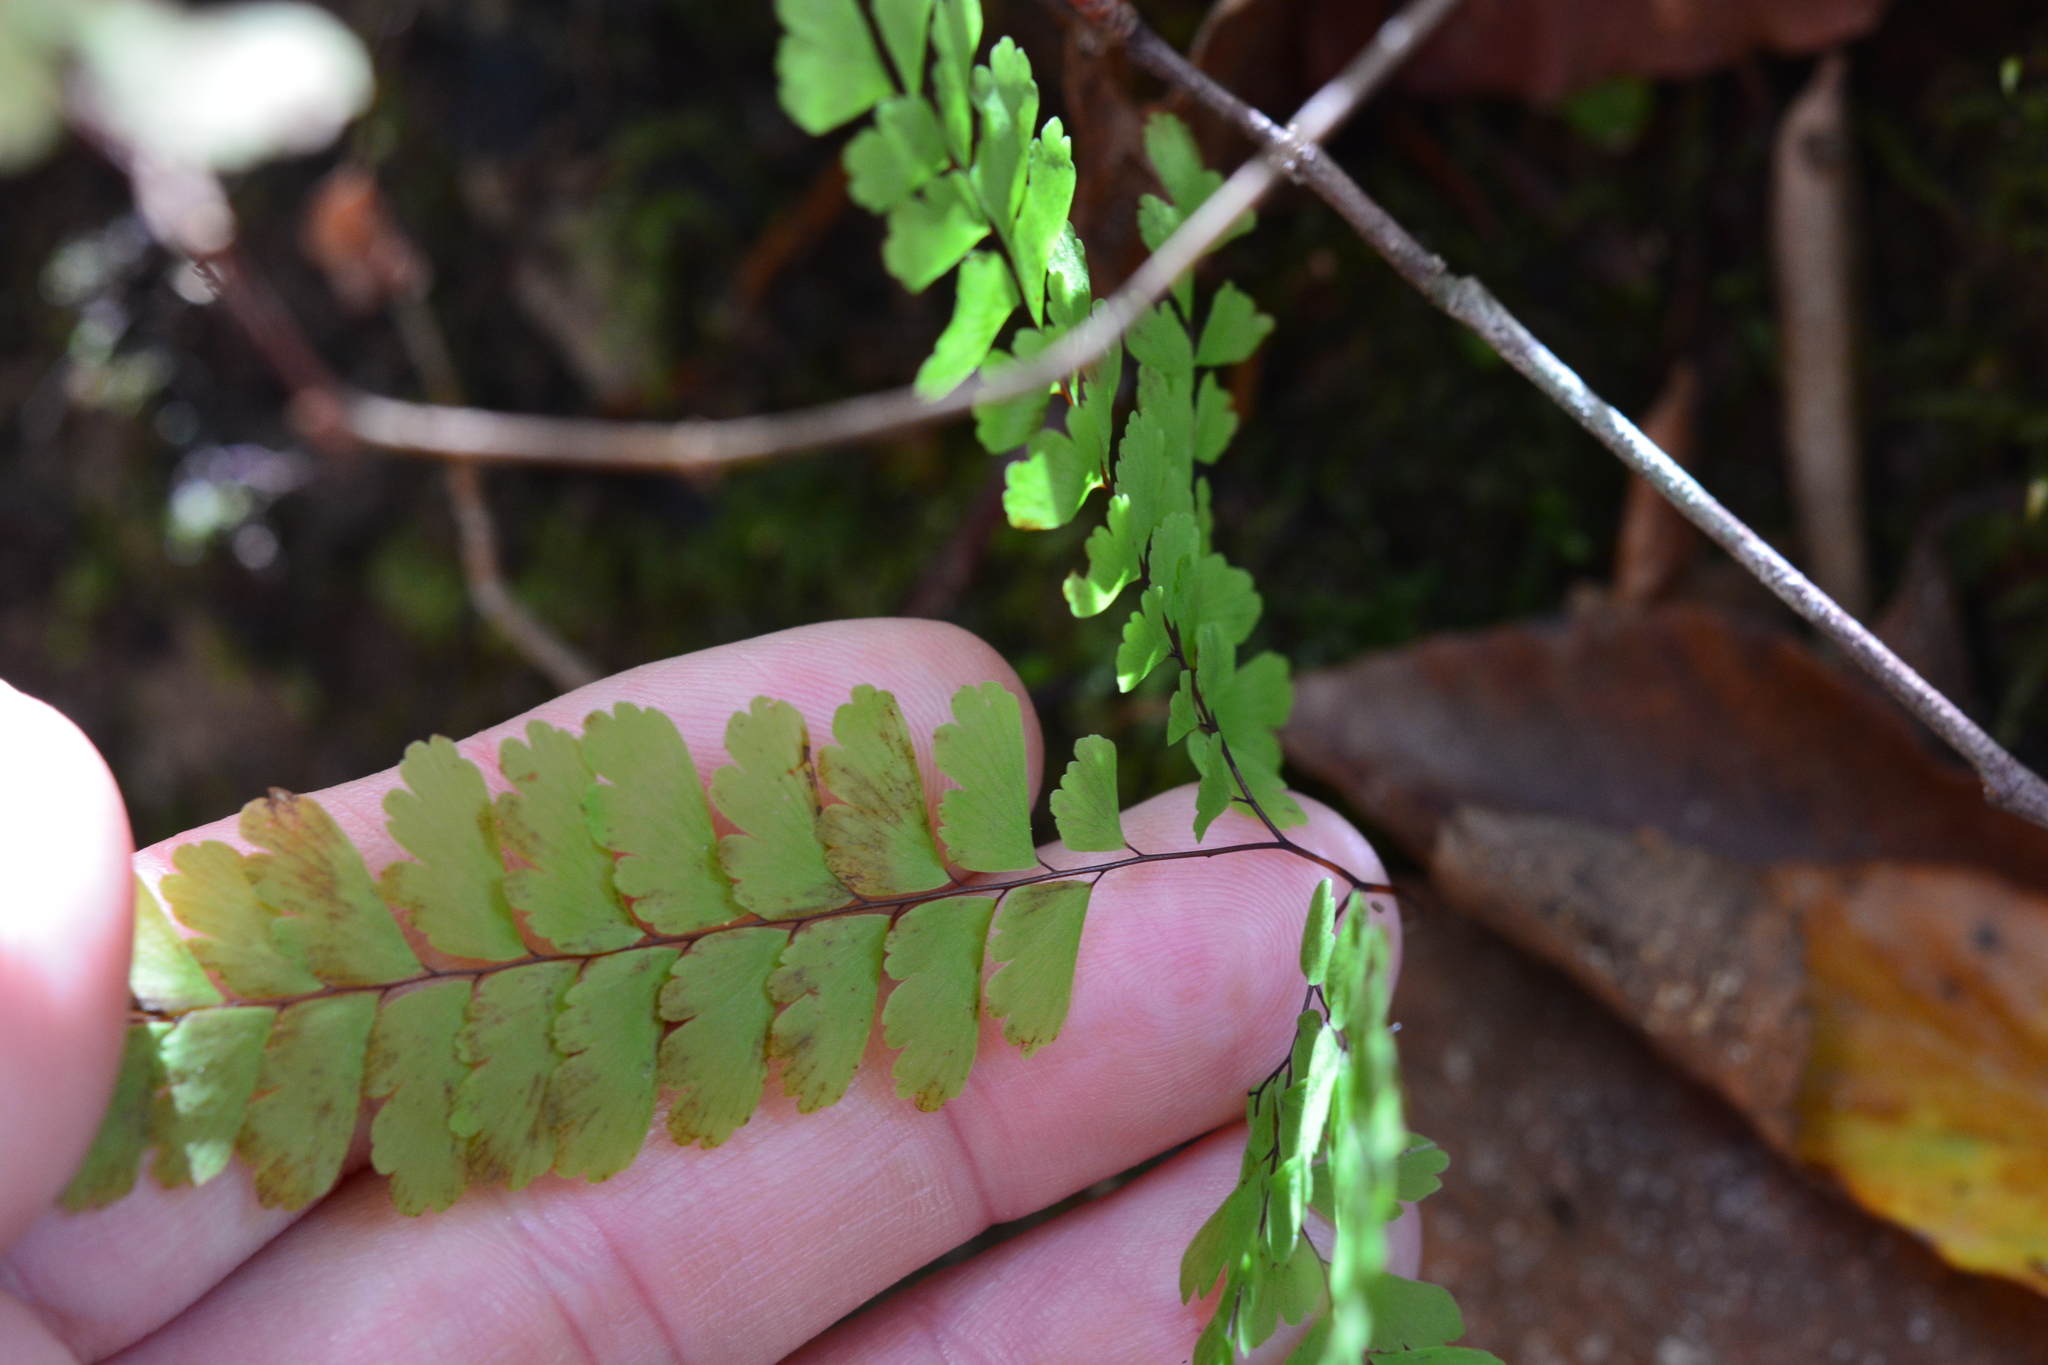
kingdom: Plantae
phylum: Tracheophyta
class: Polypodiopsida
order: Polypodiales
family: Pteridaceae
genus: Adiantum
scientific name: Adiantum pedatum
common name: Five-finger fern
